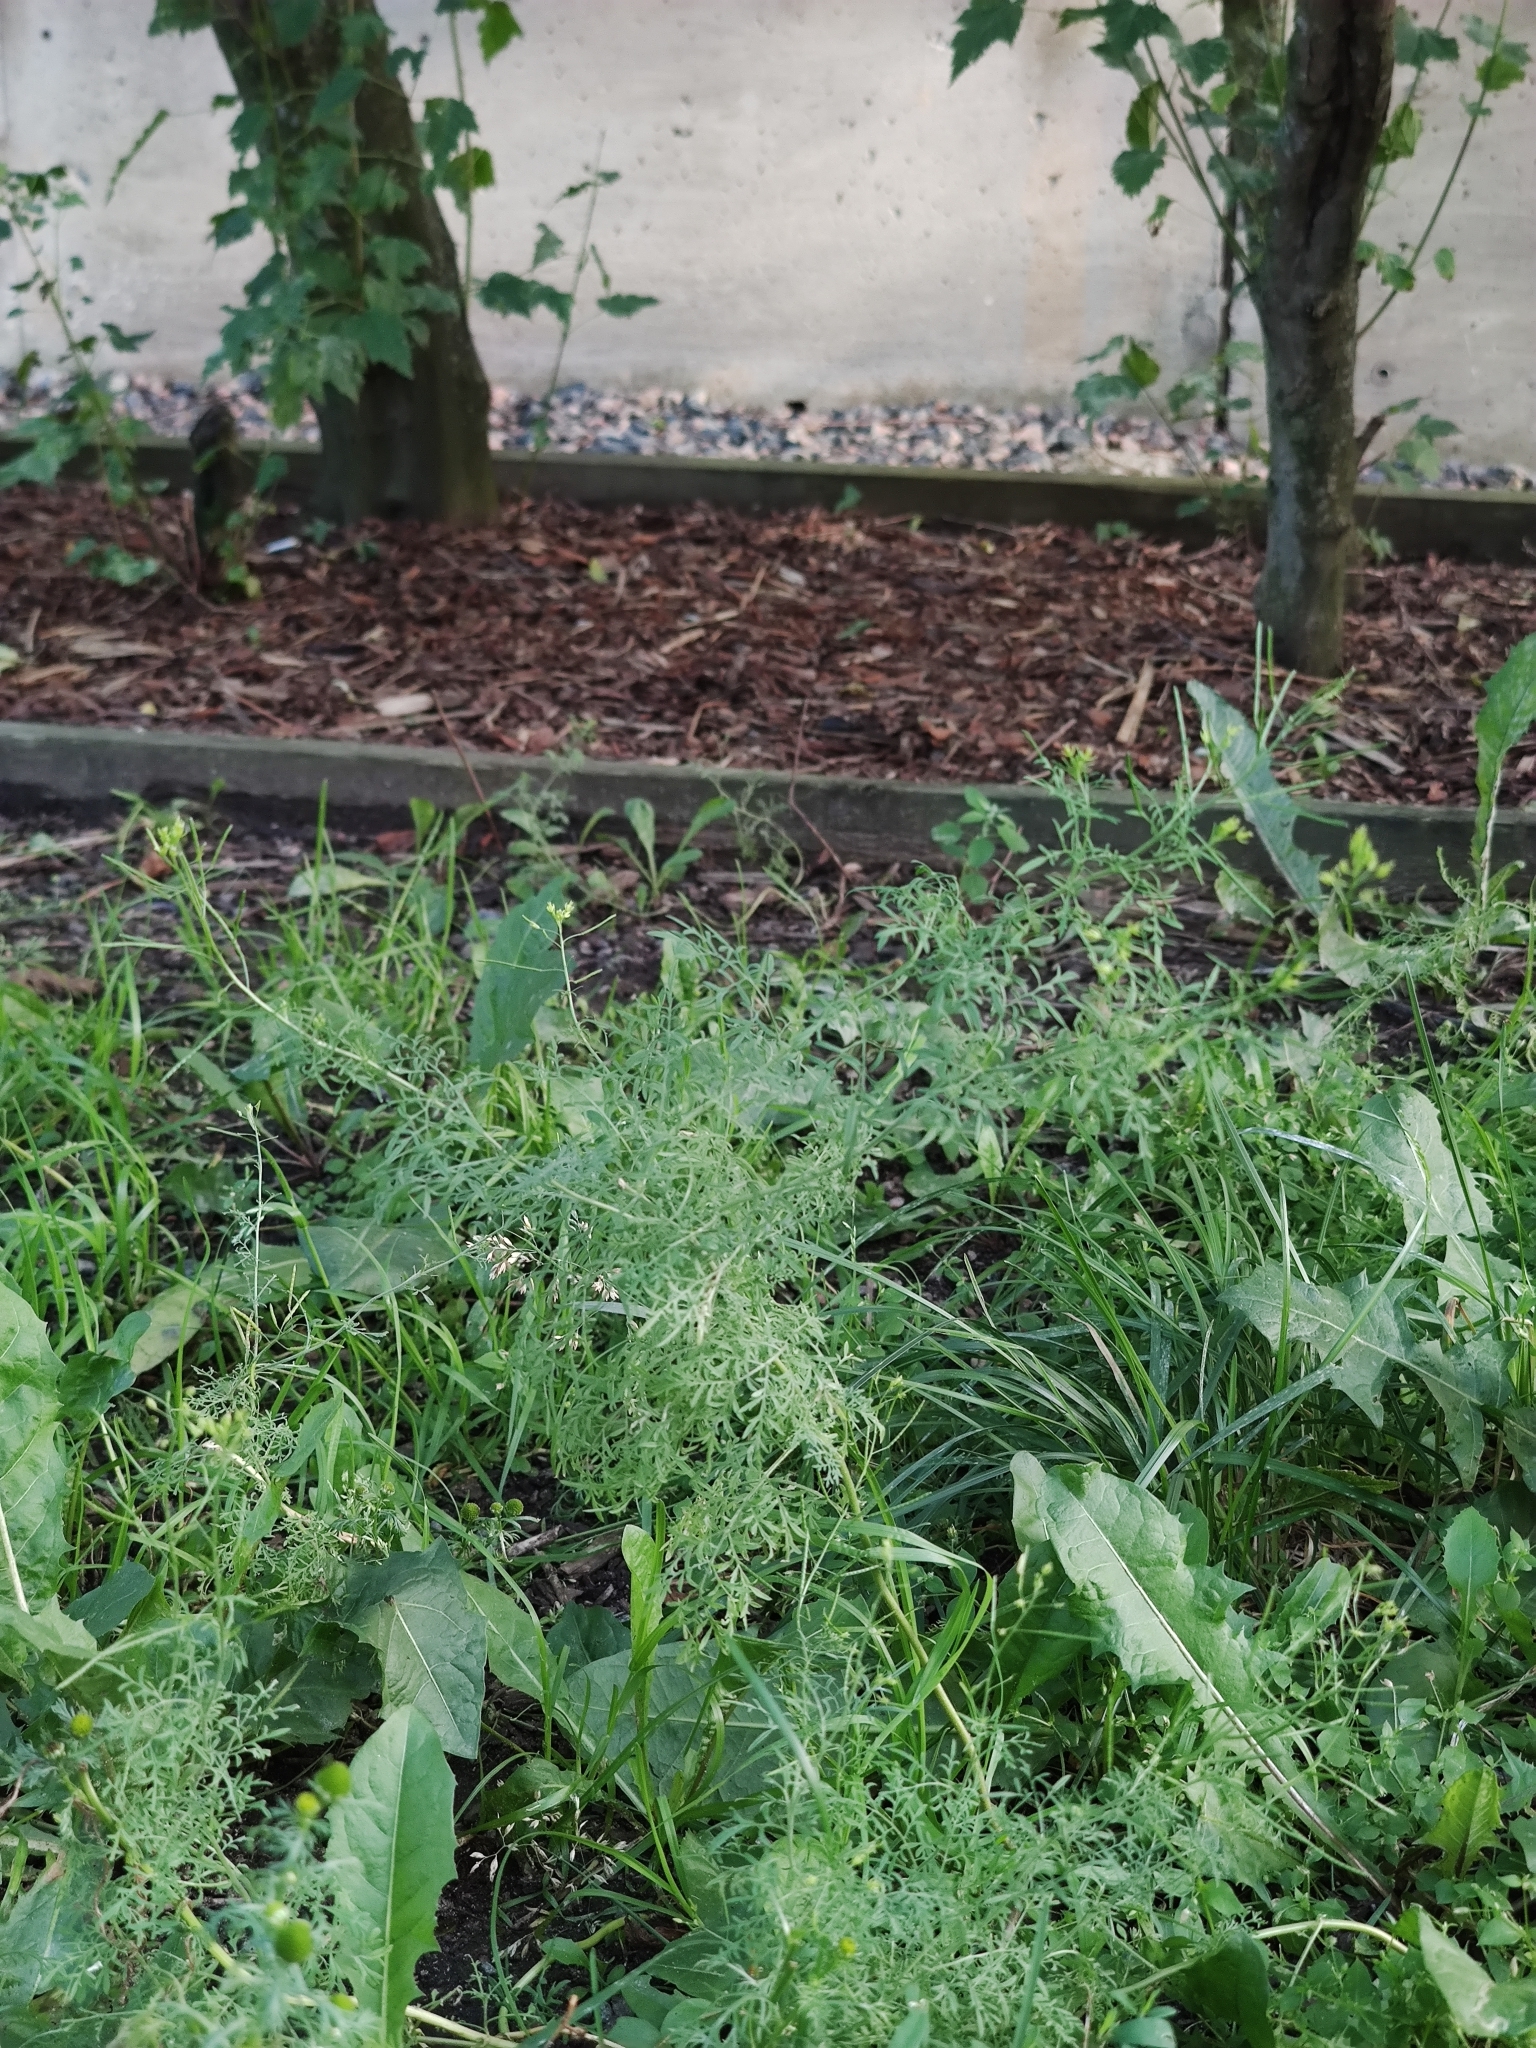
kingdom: Plantae
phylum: Tracheophyta
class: Magnoliopsida
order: Brassicales
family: Brassicaceae
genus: Descurainia
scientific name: Descurainia sophia
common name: Flixweed
